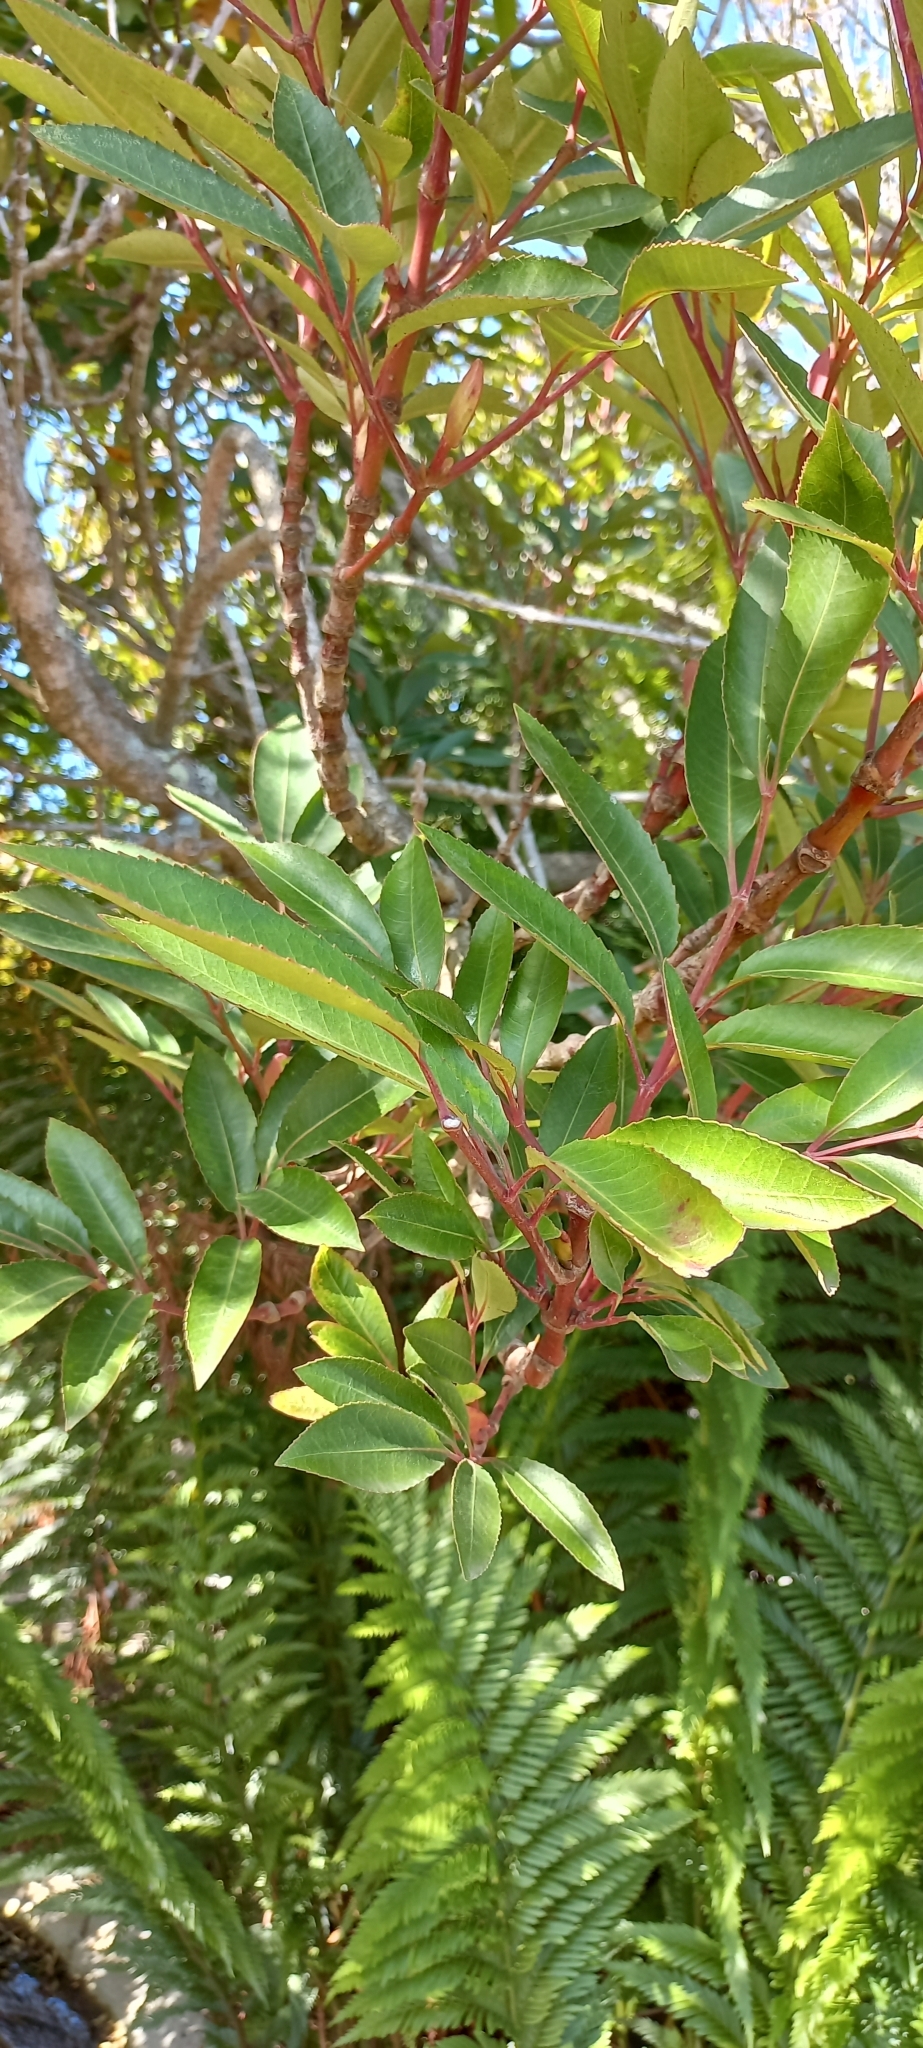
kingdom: Plantae
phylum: Tracheophyta
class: Magnoliopsida
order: Oxalidales
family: Cunoniaceae
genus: Cunonia
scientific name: Cunonia capensis
